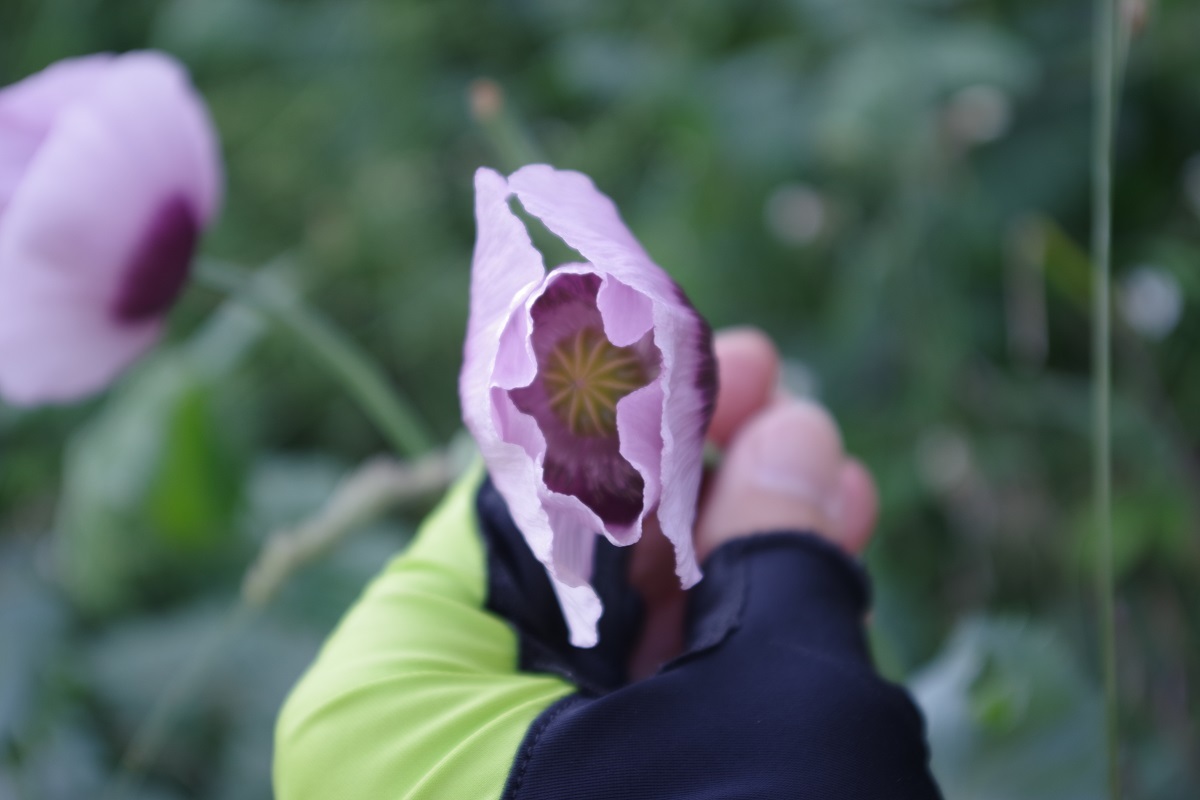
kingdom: Plantae
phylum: Tracheophyta
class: Magnoliopsida
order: Ranunculales
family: Papaveraceae
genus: Papaver
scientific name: Papaver somniferum
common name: Opium poppy
